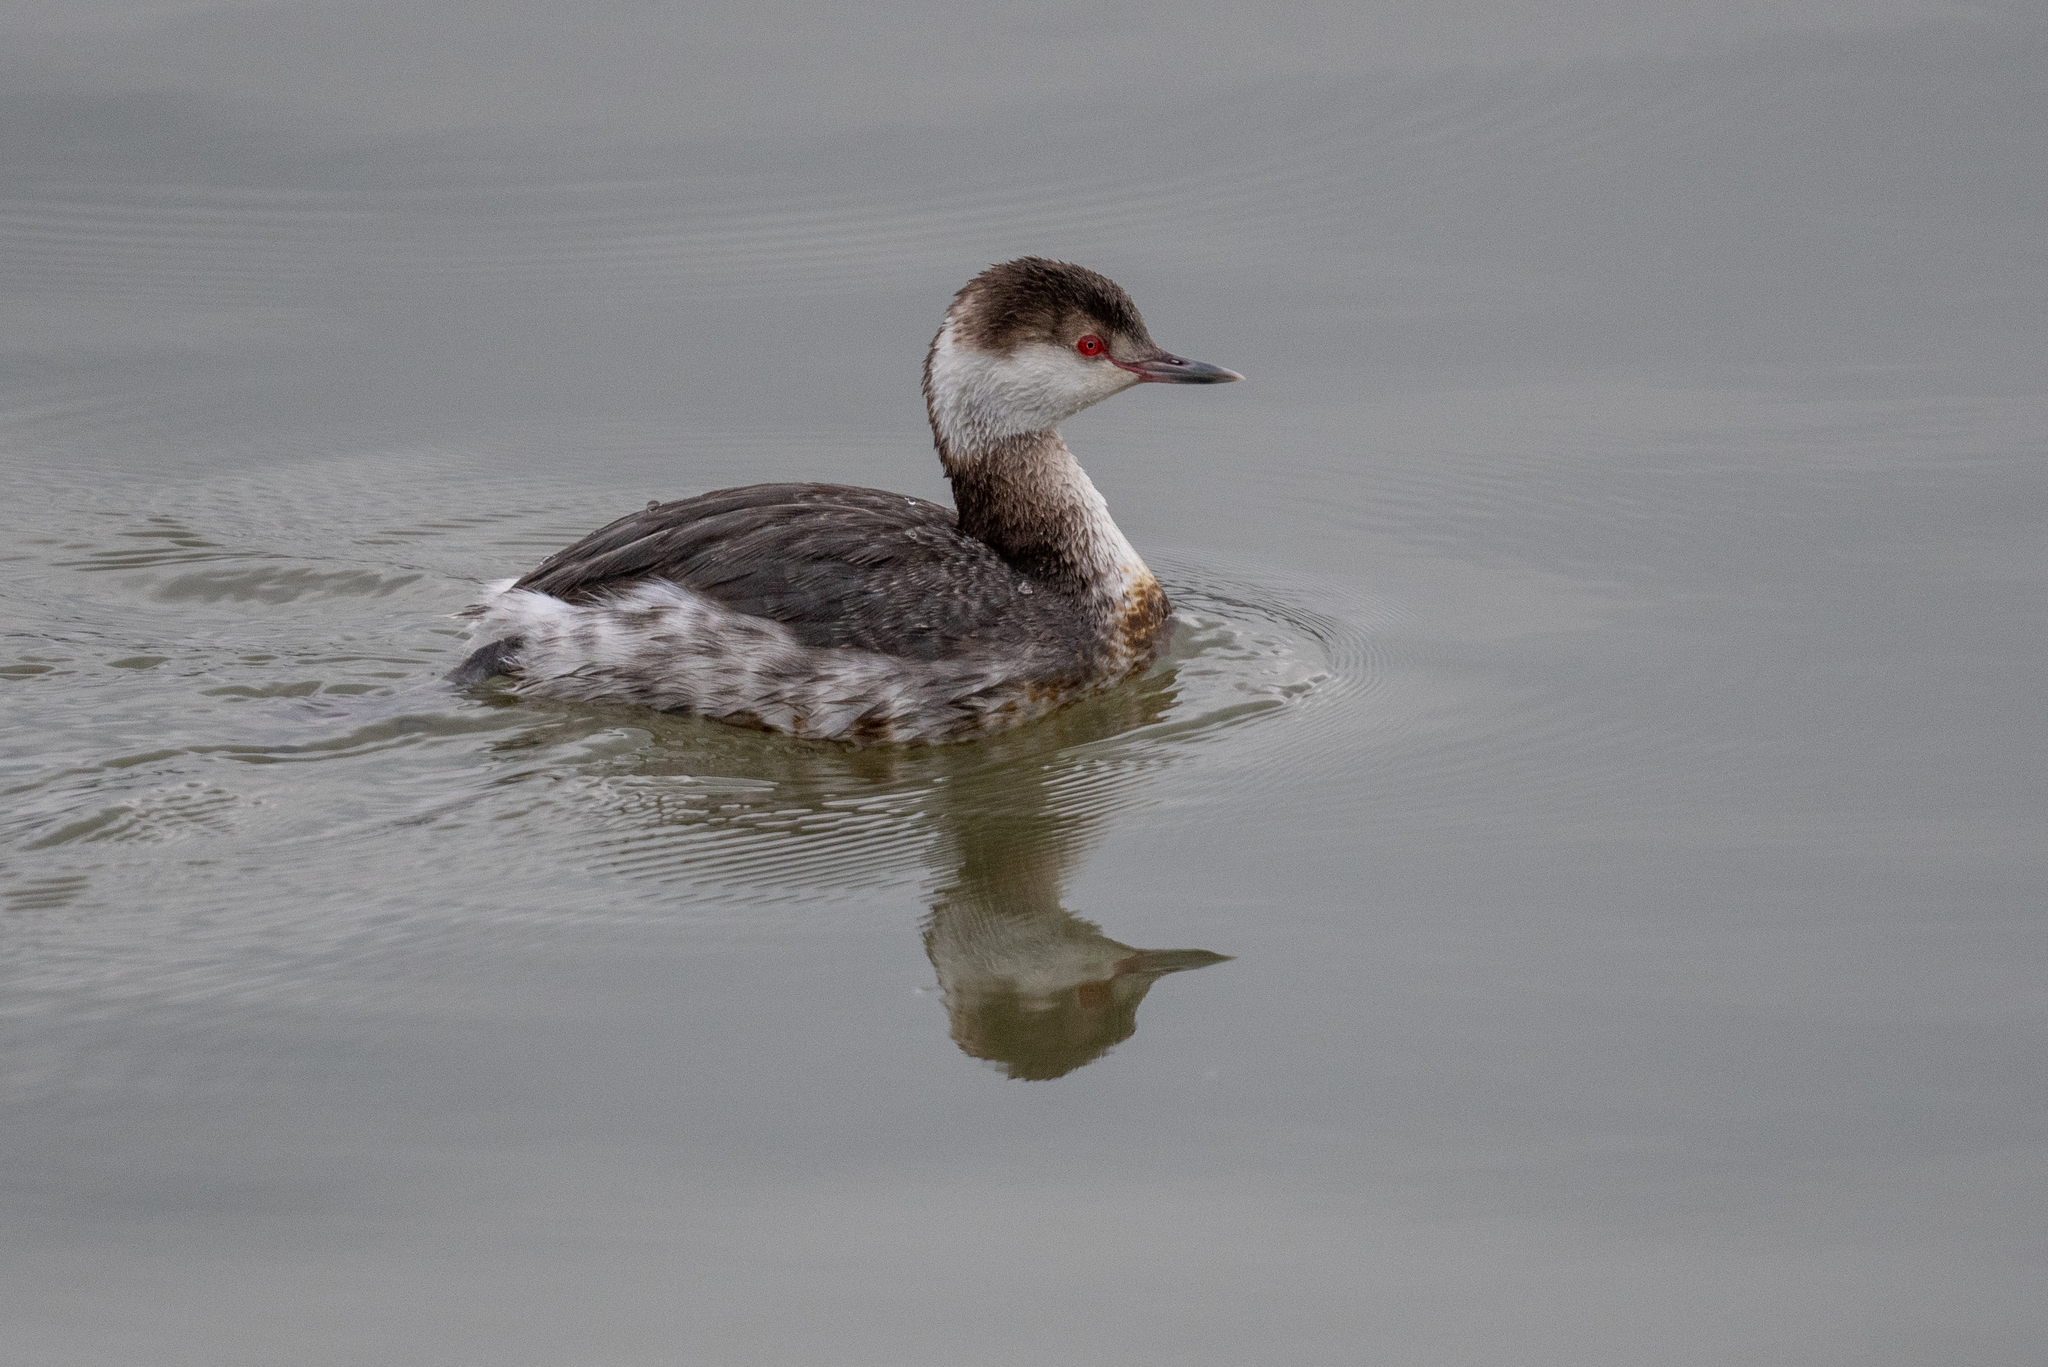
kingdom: Animalia
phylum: Chordata
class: Aves
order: Podicipediformes
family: Podicipedidae
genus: Podiceps
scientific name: Podiceps auritus
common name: Horned grebe
